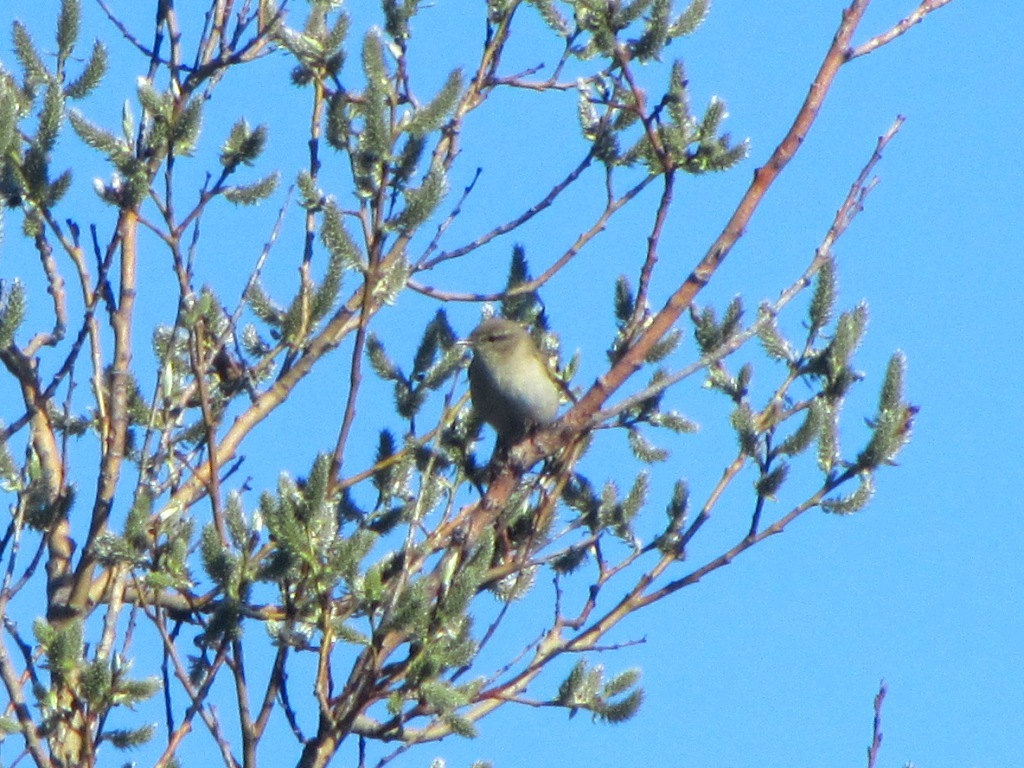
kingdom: Animalia
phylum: Chordata
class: Aves
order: Passeriformes
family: Phylloscopidae
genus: Phylloscopus
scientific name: Phylloscopus trochilus
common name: Willow warbler
